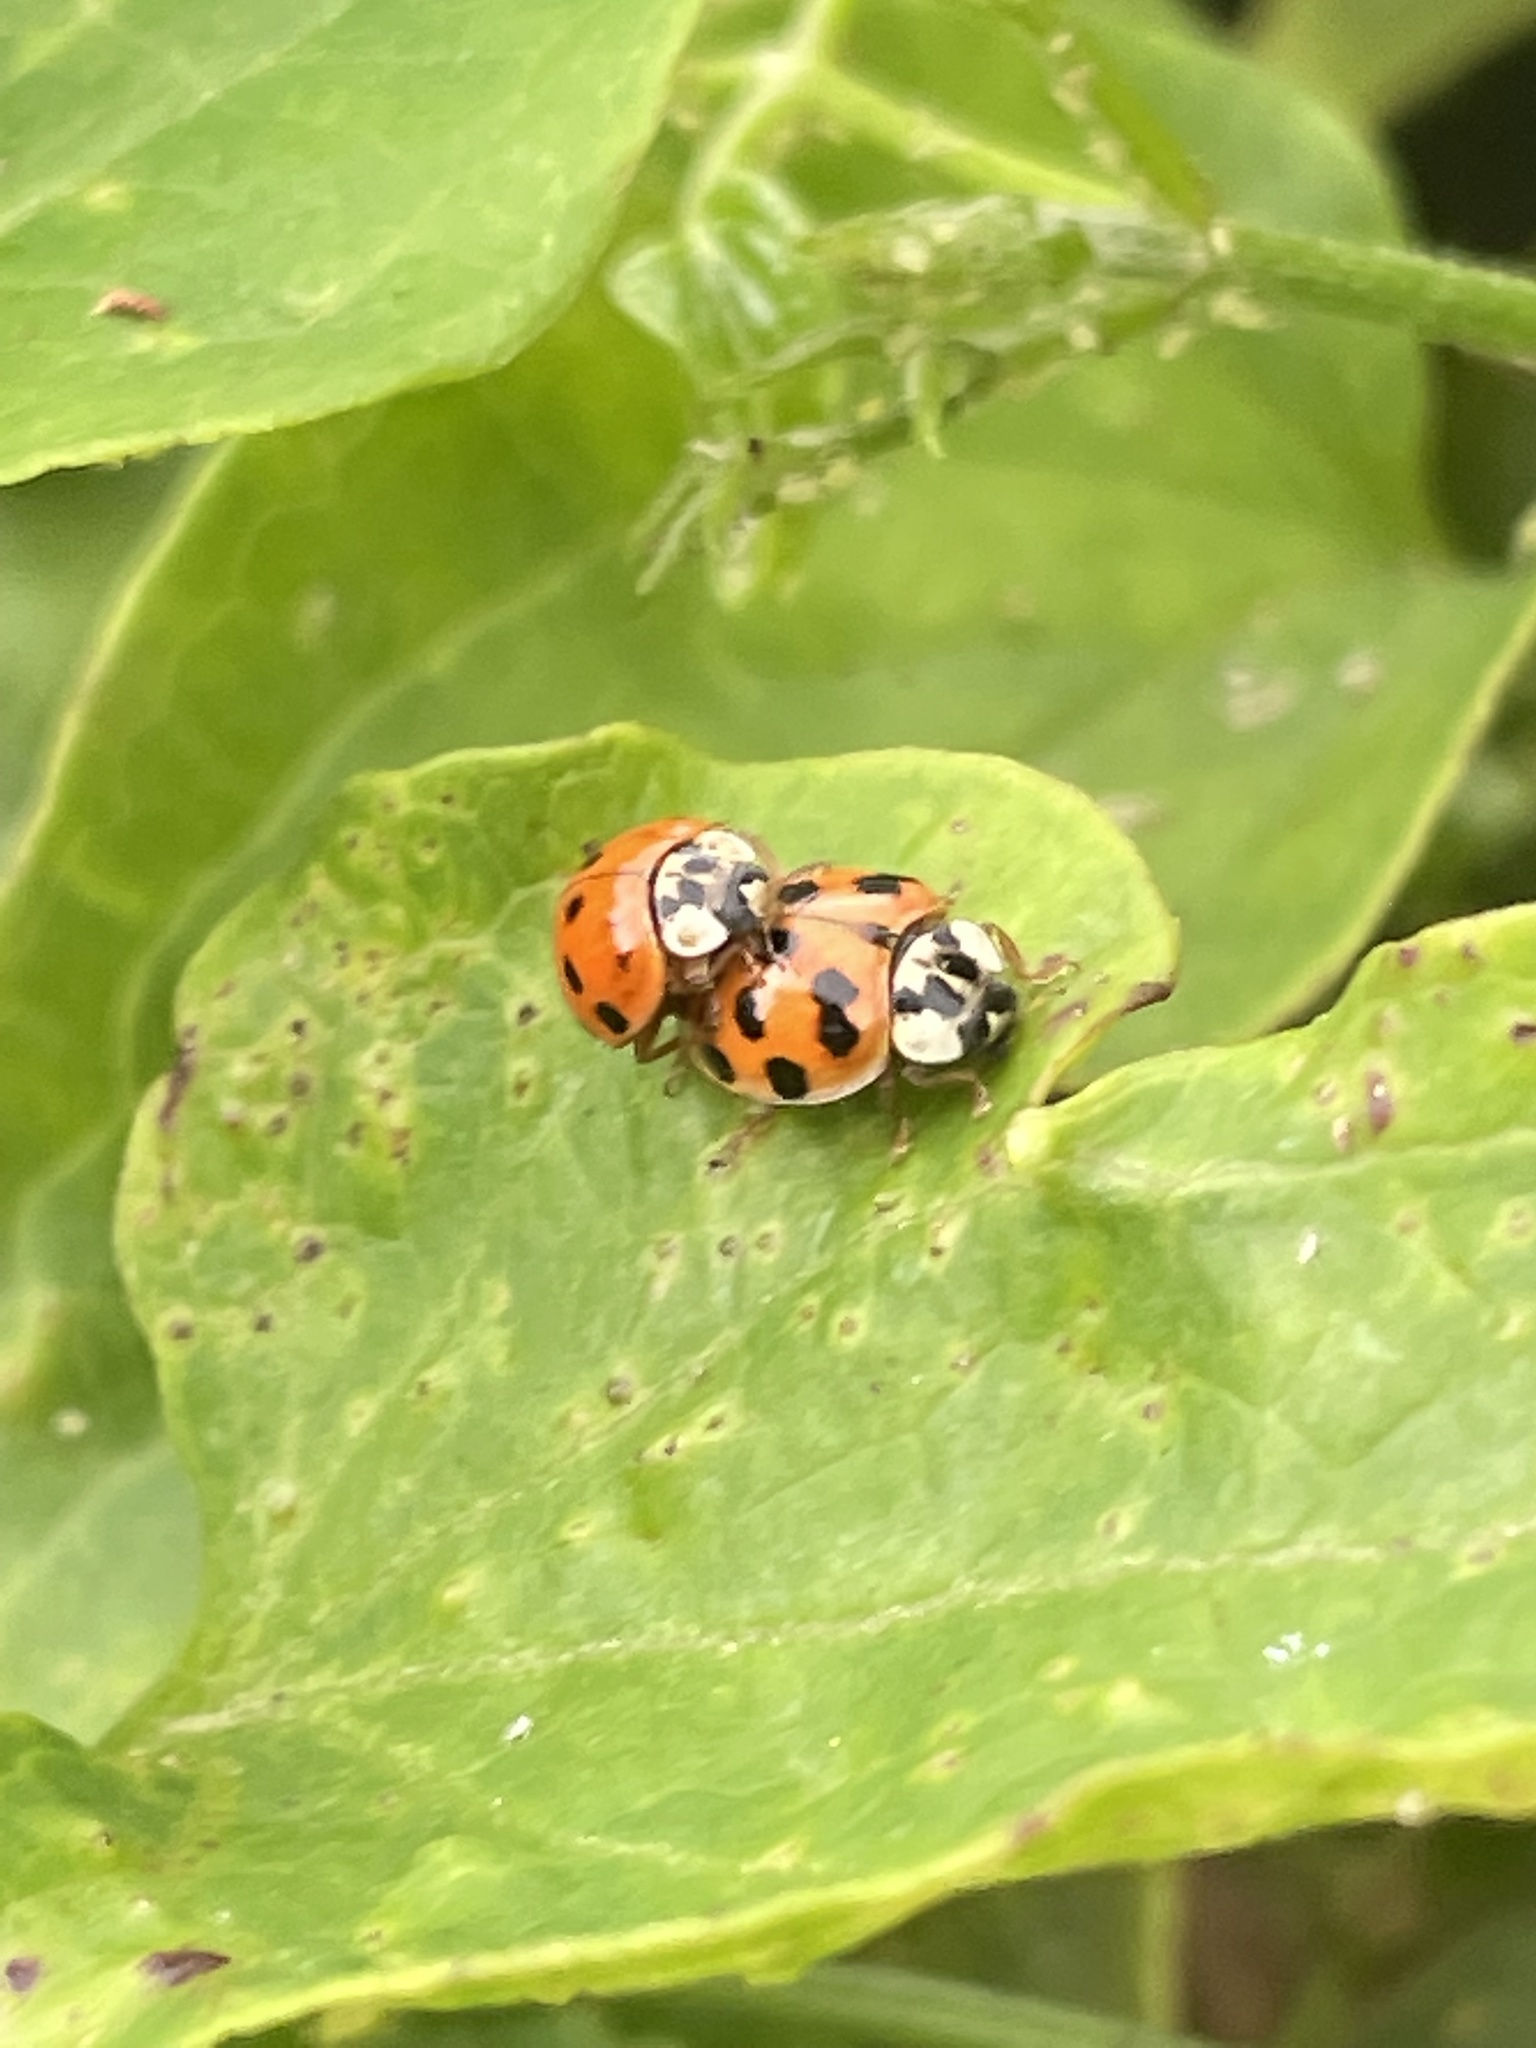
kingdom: Animalia
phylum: Arthropoda
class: Insecta
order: Coleoptera
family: Coccinellidae
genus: Harmonia
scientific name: Harmonia axyridis
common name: Harlequin ladybird
